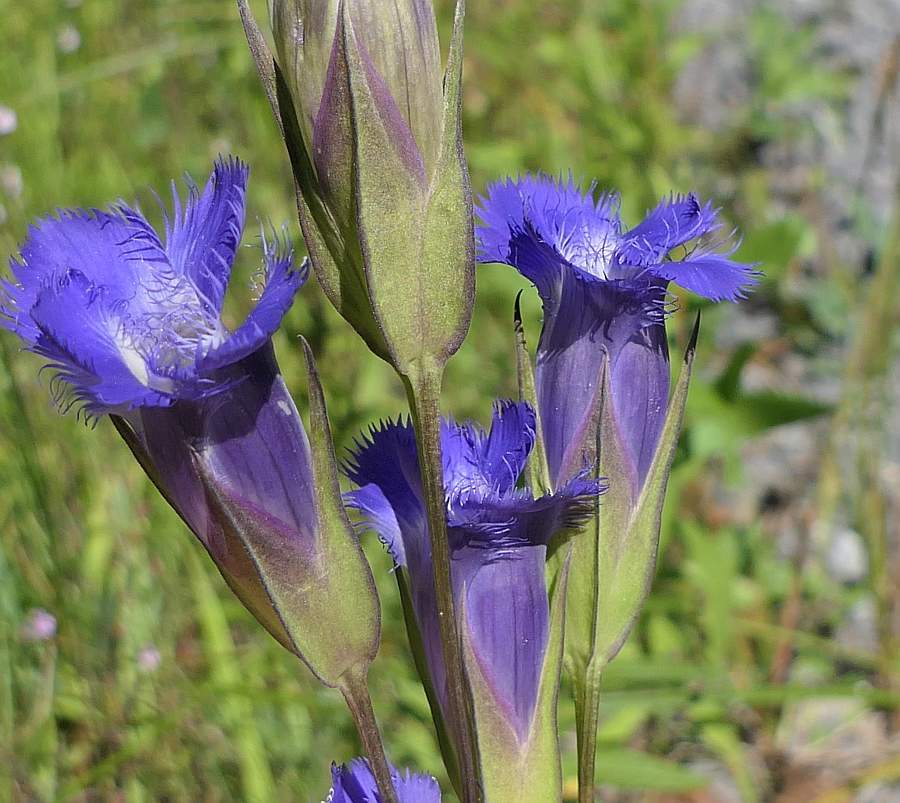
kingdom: Plantae
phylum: Tracheophyta
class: Magnoliopsida
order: Gentianales
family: Gentianaceae
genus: Gentianopsis
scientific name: Gentianopsis crinita
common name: Fringed-gentian
